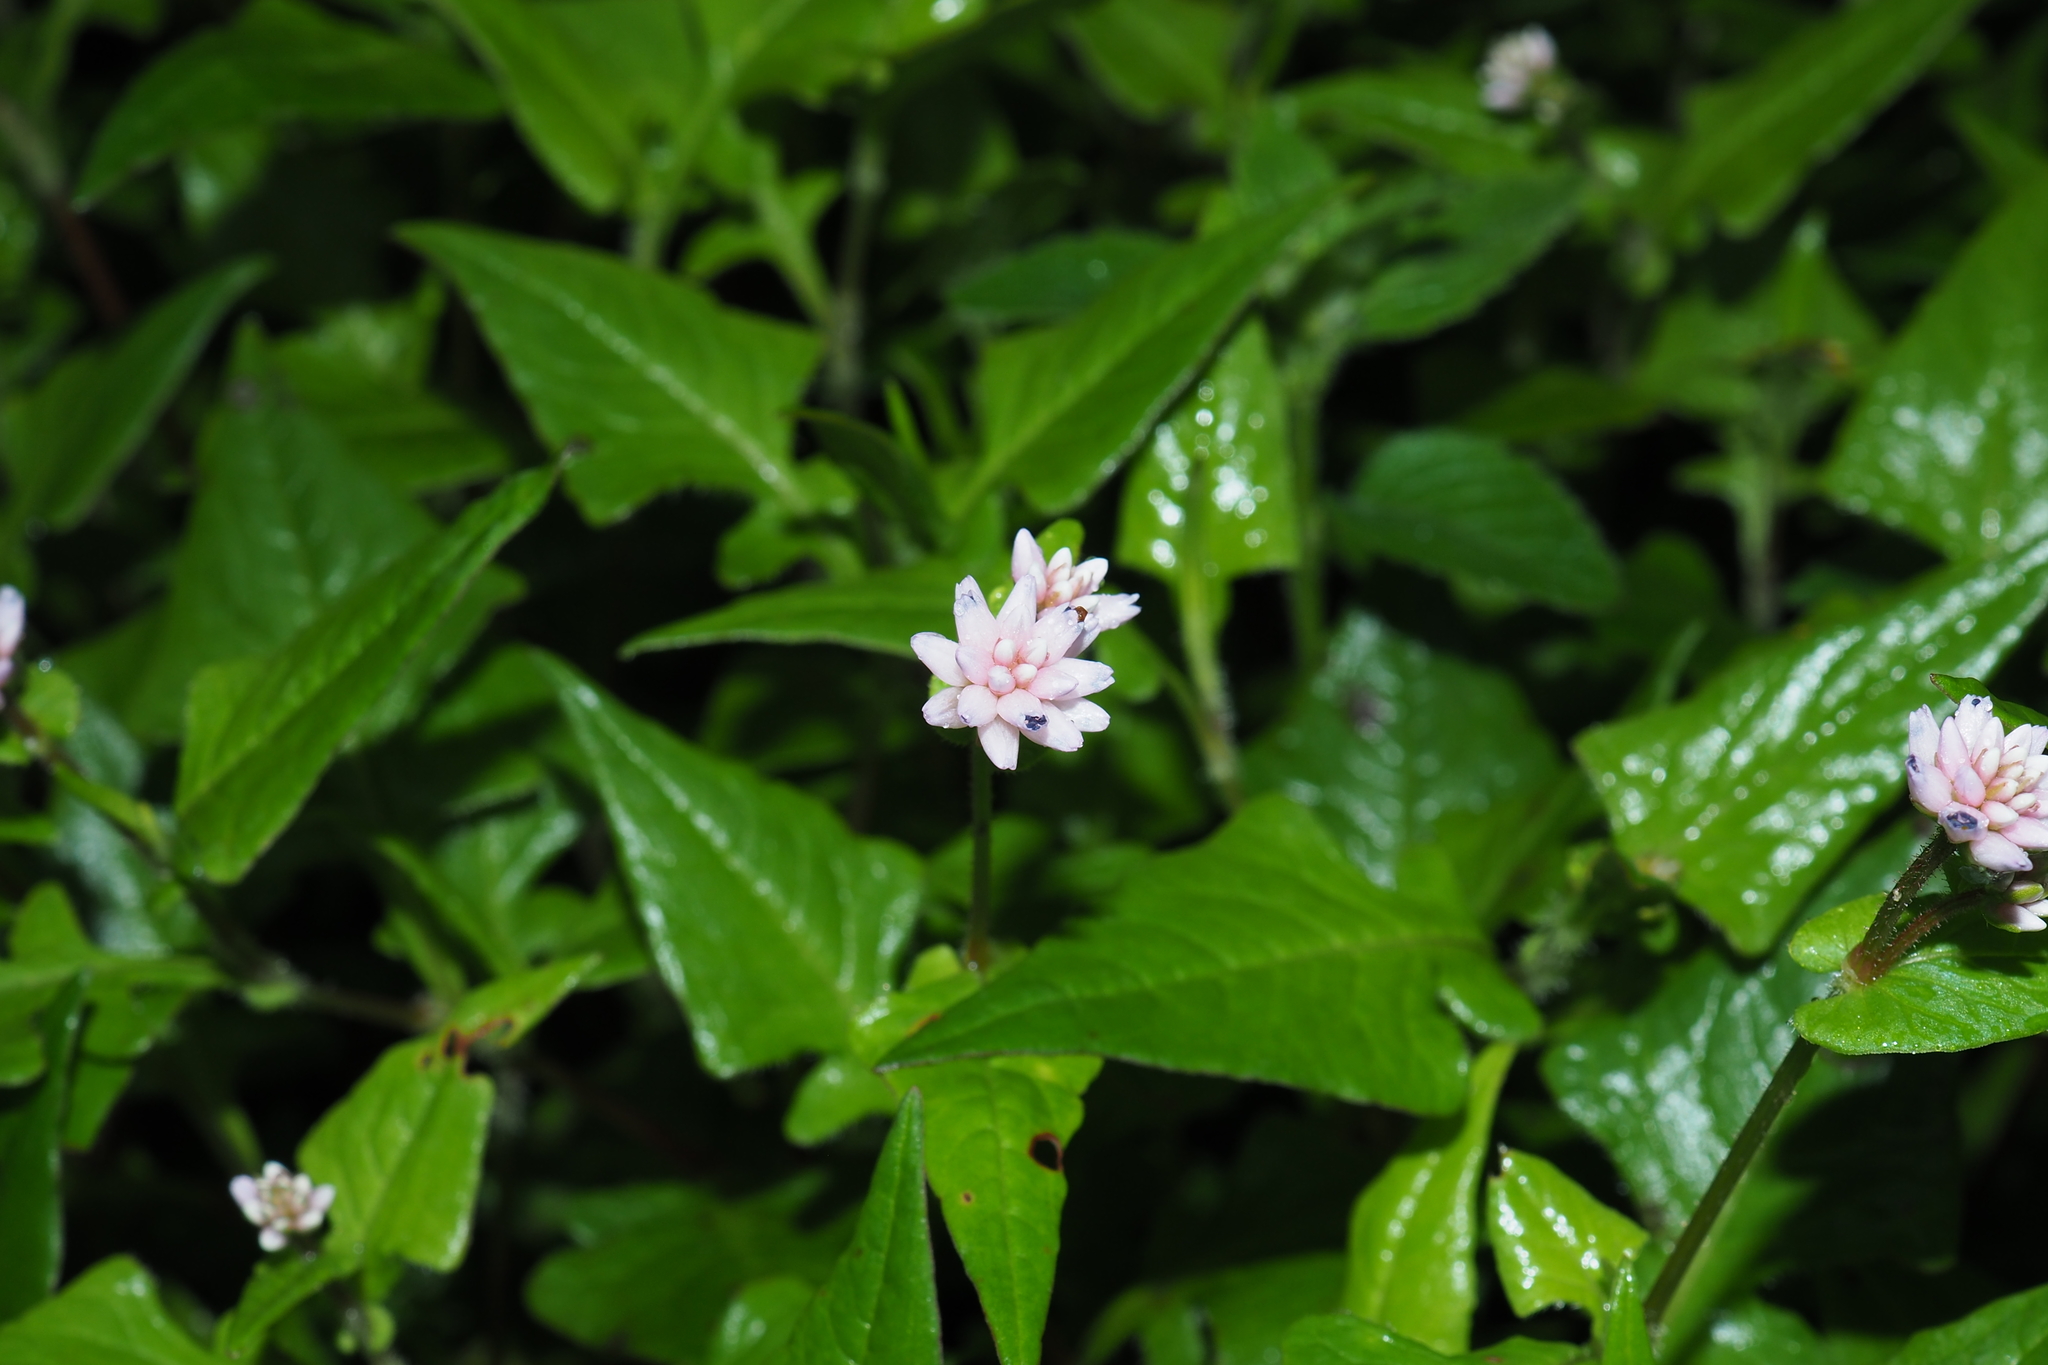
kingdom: Plantae
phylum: Tracheophyta
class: Magnoliopsida
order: Caryophyllales
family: Polygonaceae
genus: Persicaria
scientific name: Persicaria runcinata
